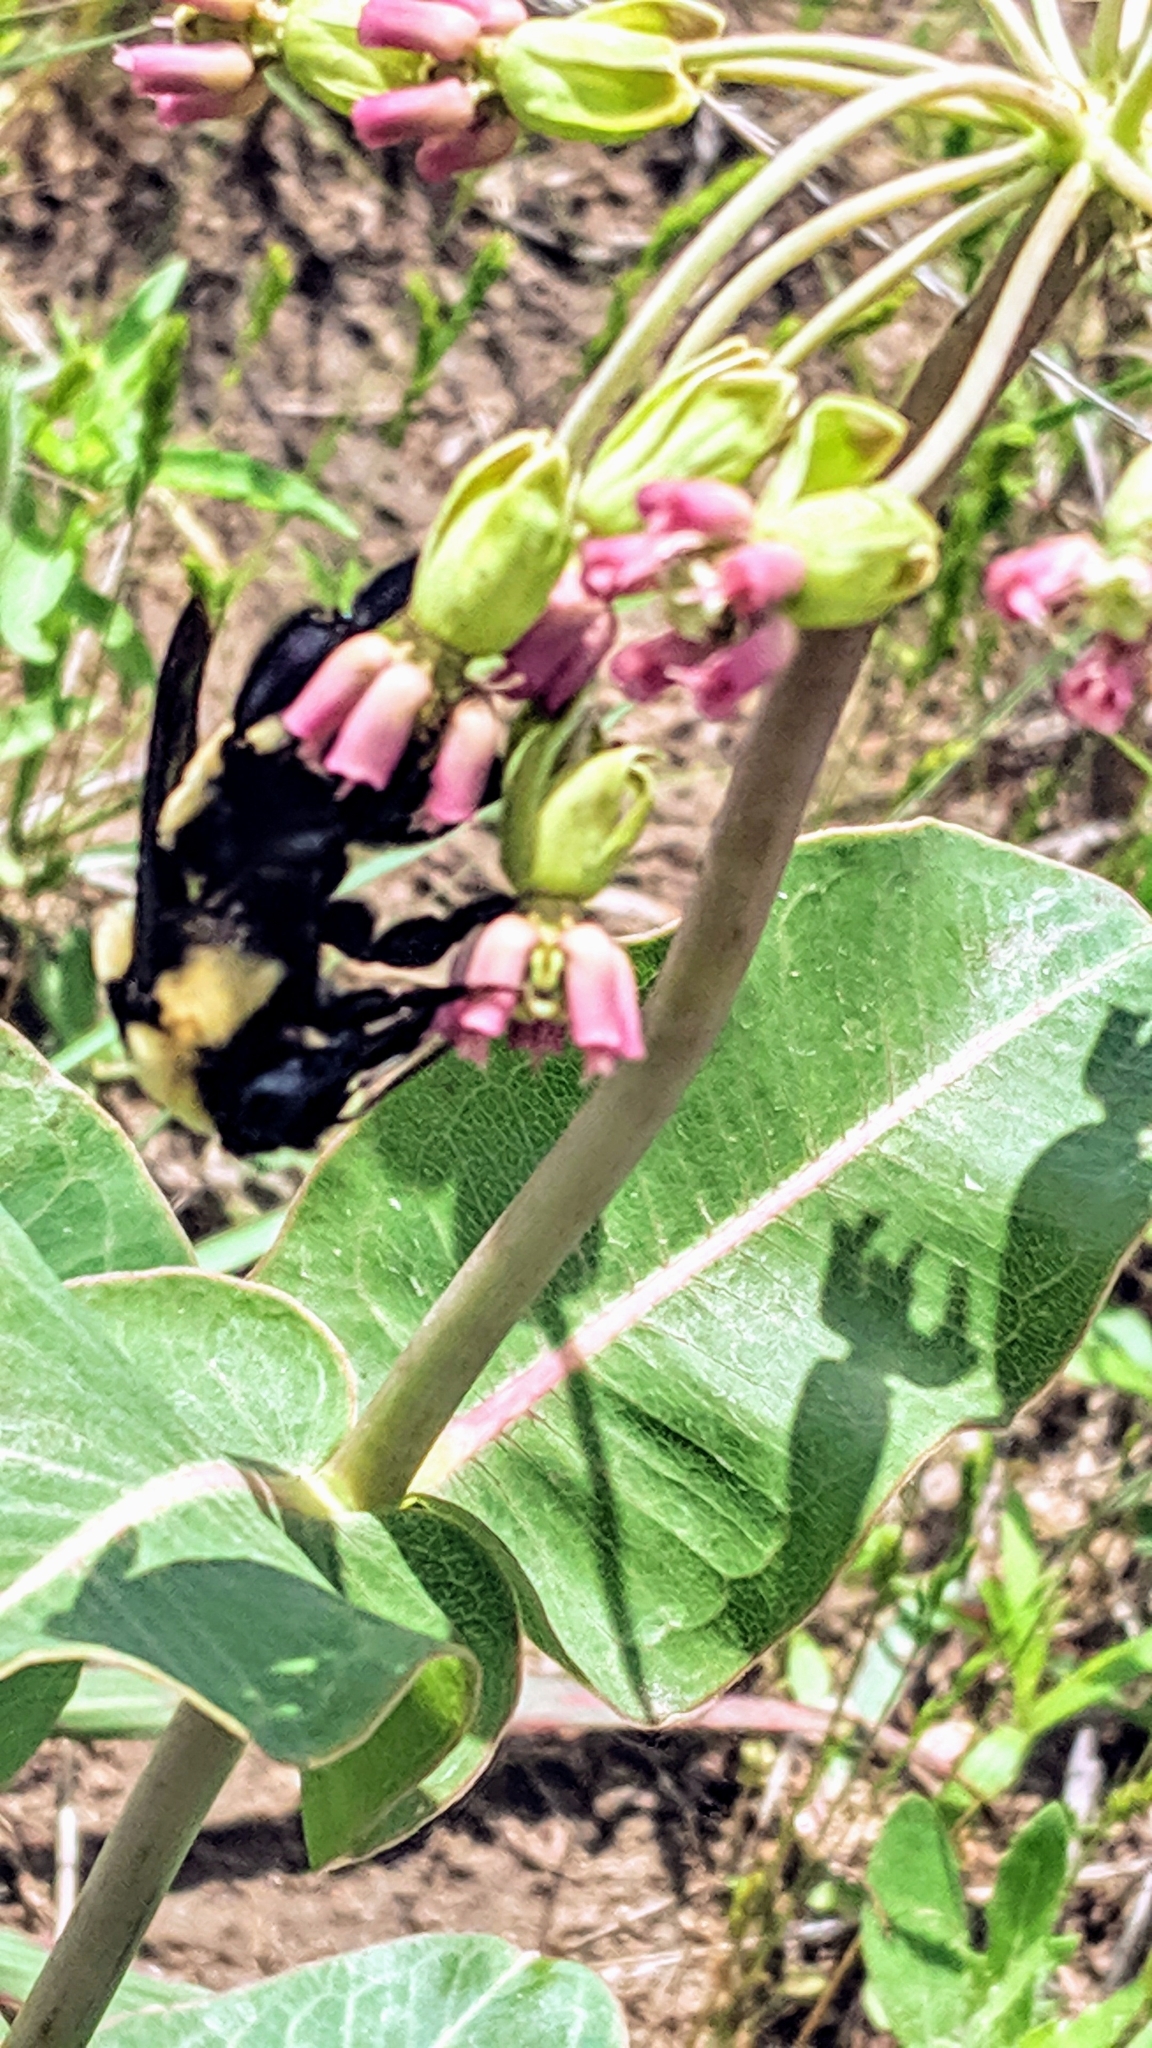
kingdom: Animalia
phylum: Arthropoda
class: Insecta
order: Hymenoptera
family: Apidae
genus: Bombus
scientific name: Bombus fraternus
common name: Southern plains bumble bee
